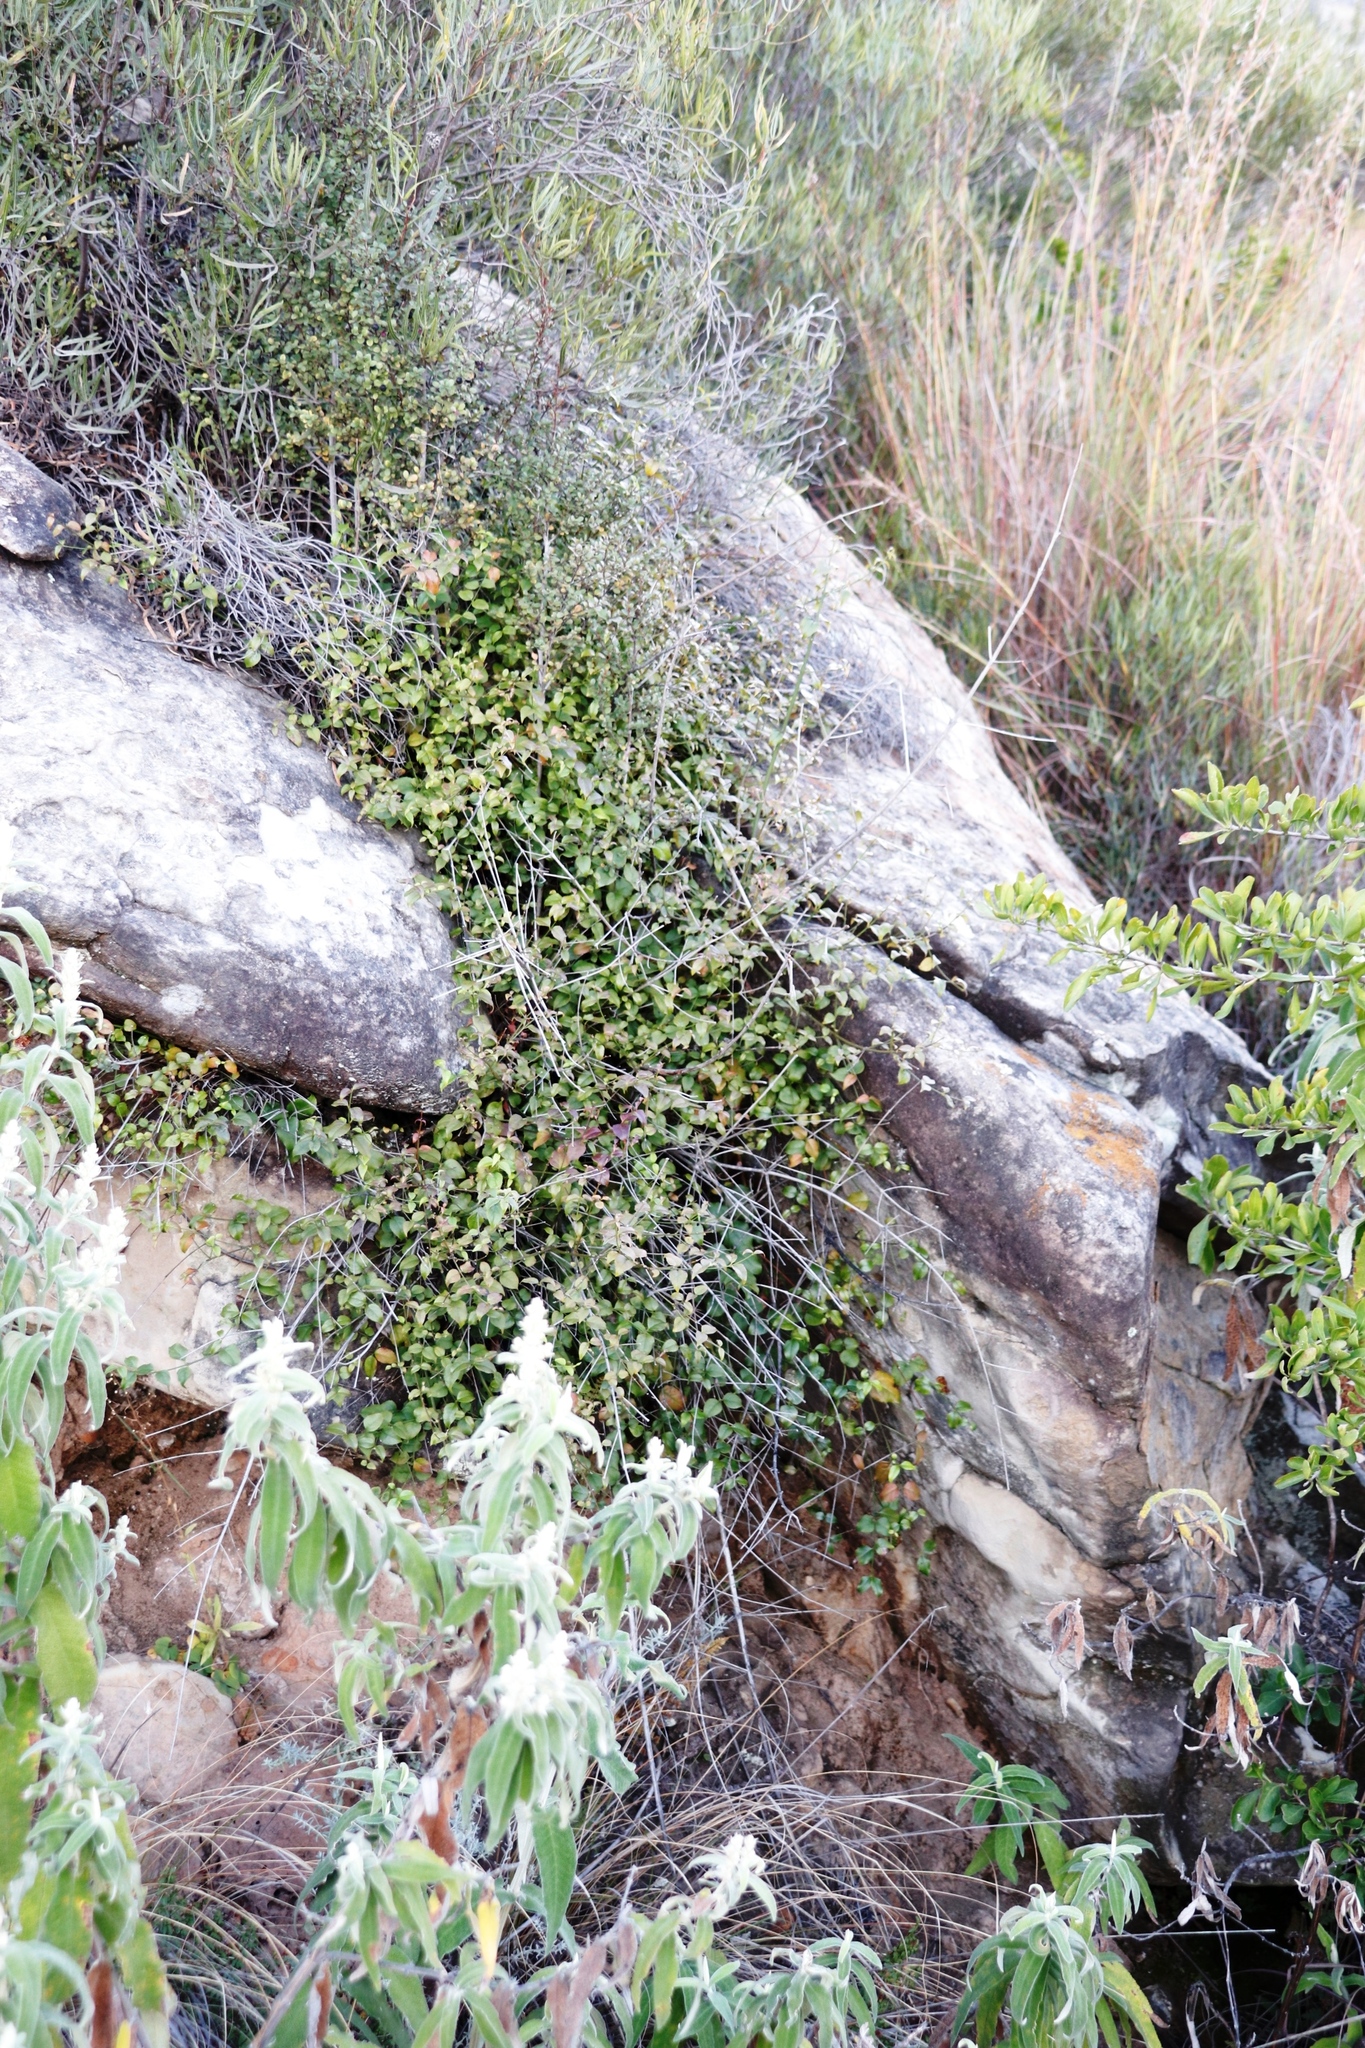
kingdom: Plantae
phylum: Tracheophyta
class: Magnoliopsida
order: Lamiales
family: Stilbaceae
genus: Halleria
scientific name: Halleria lucida
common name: Tree fuschia
